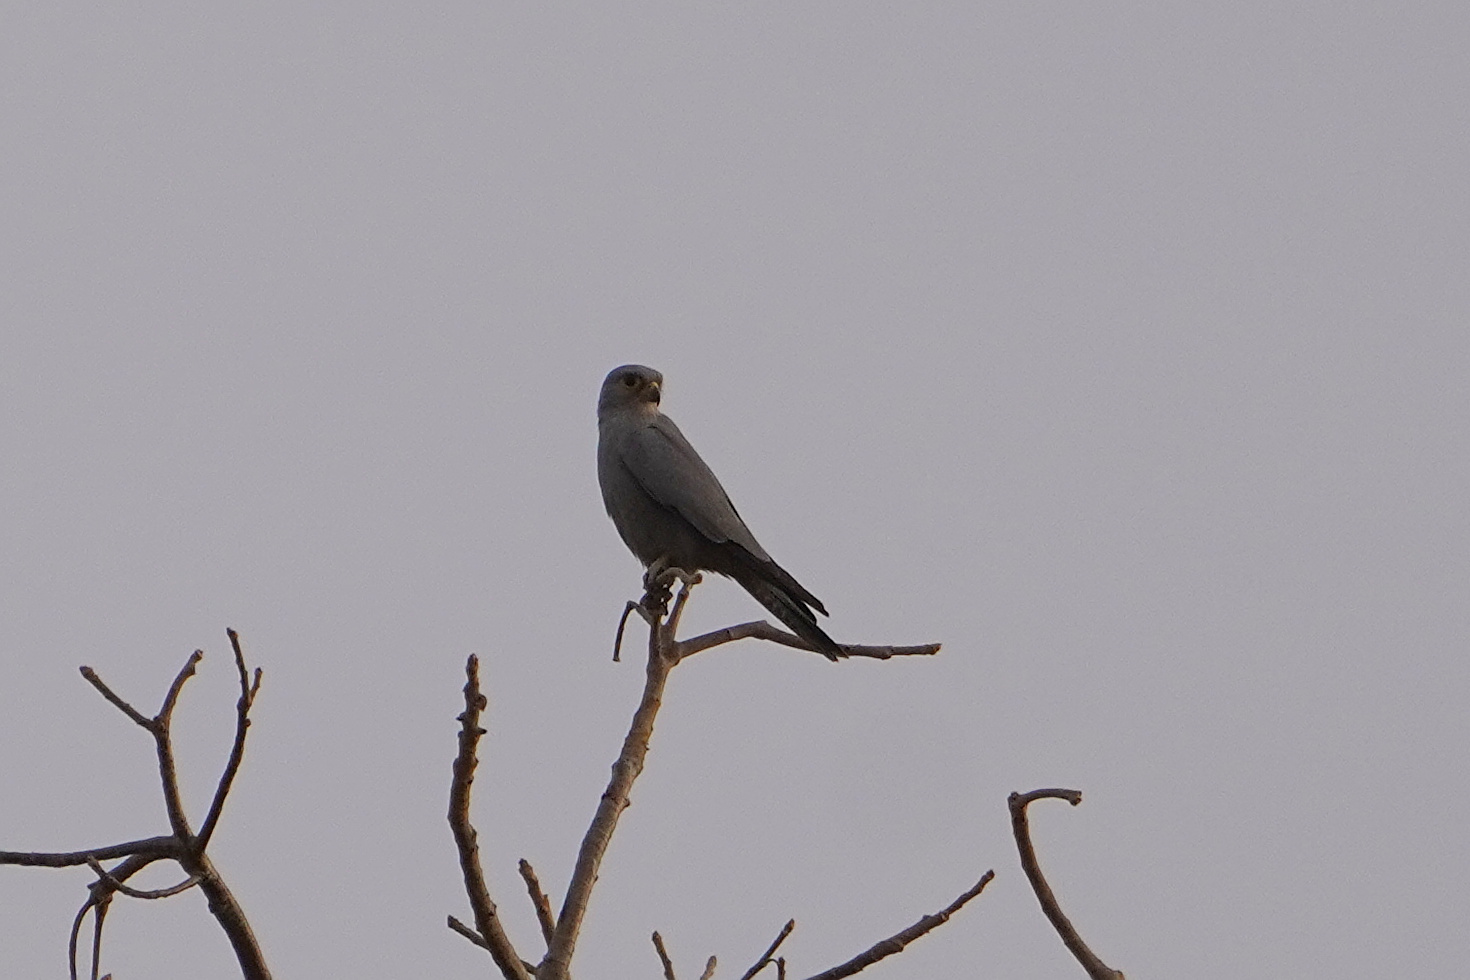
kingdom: Animalia
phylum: Chordata
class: Aves
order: Falconiformes
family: Falconidae
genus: Falco
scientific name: Falco ardosiaceus
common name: Grey kestrel
